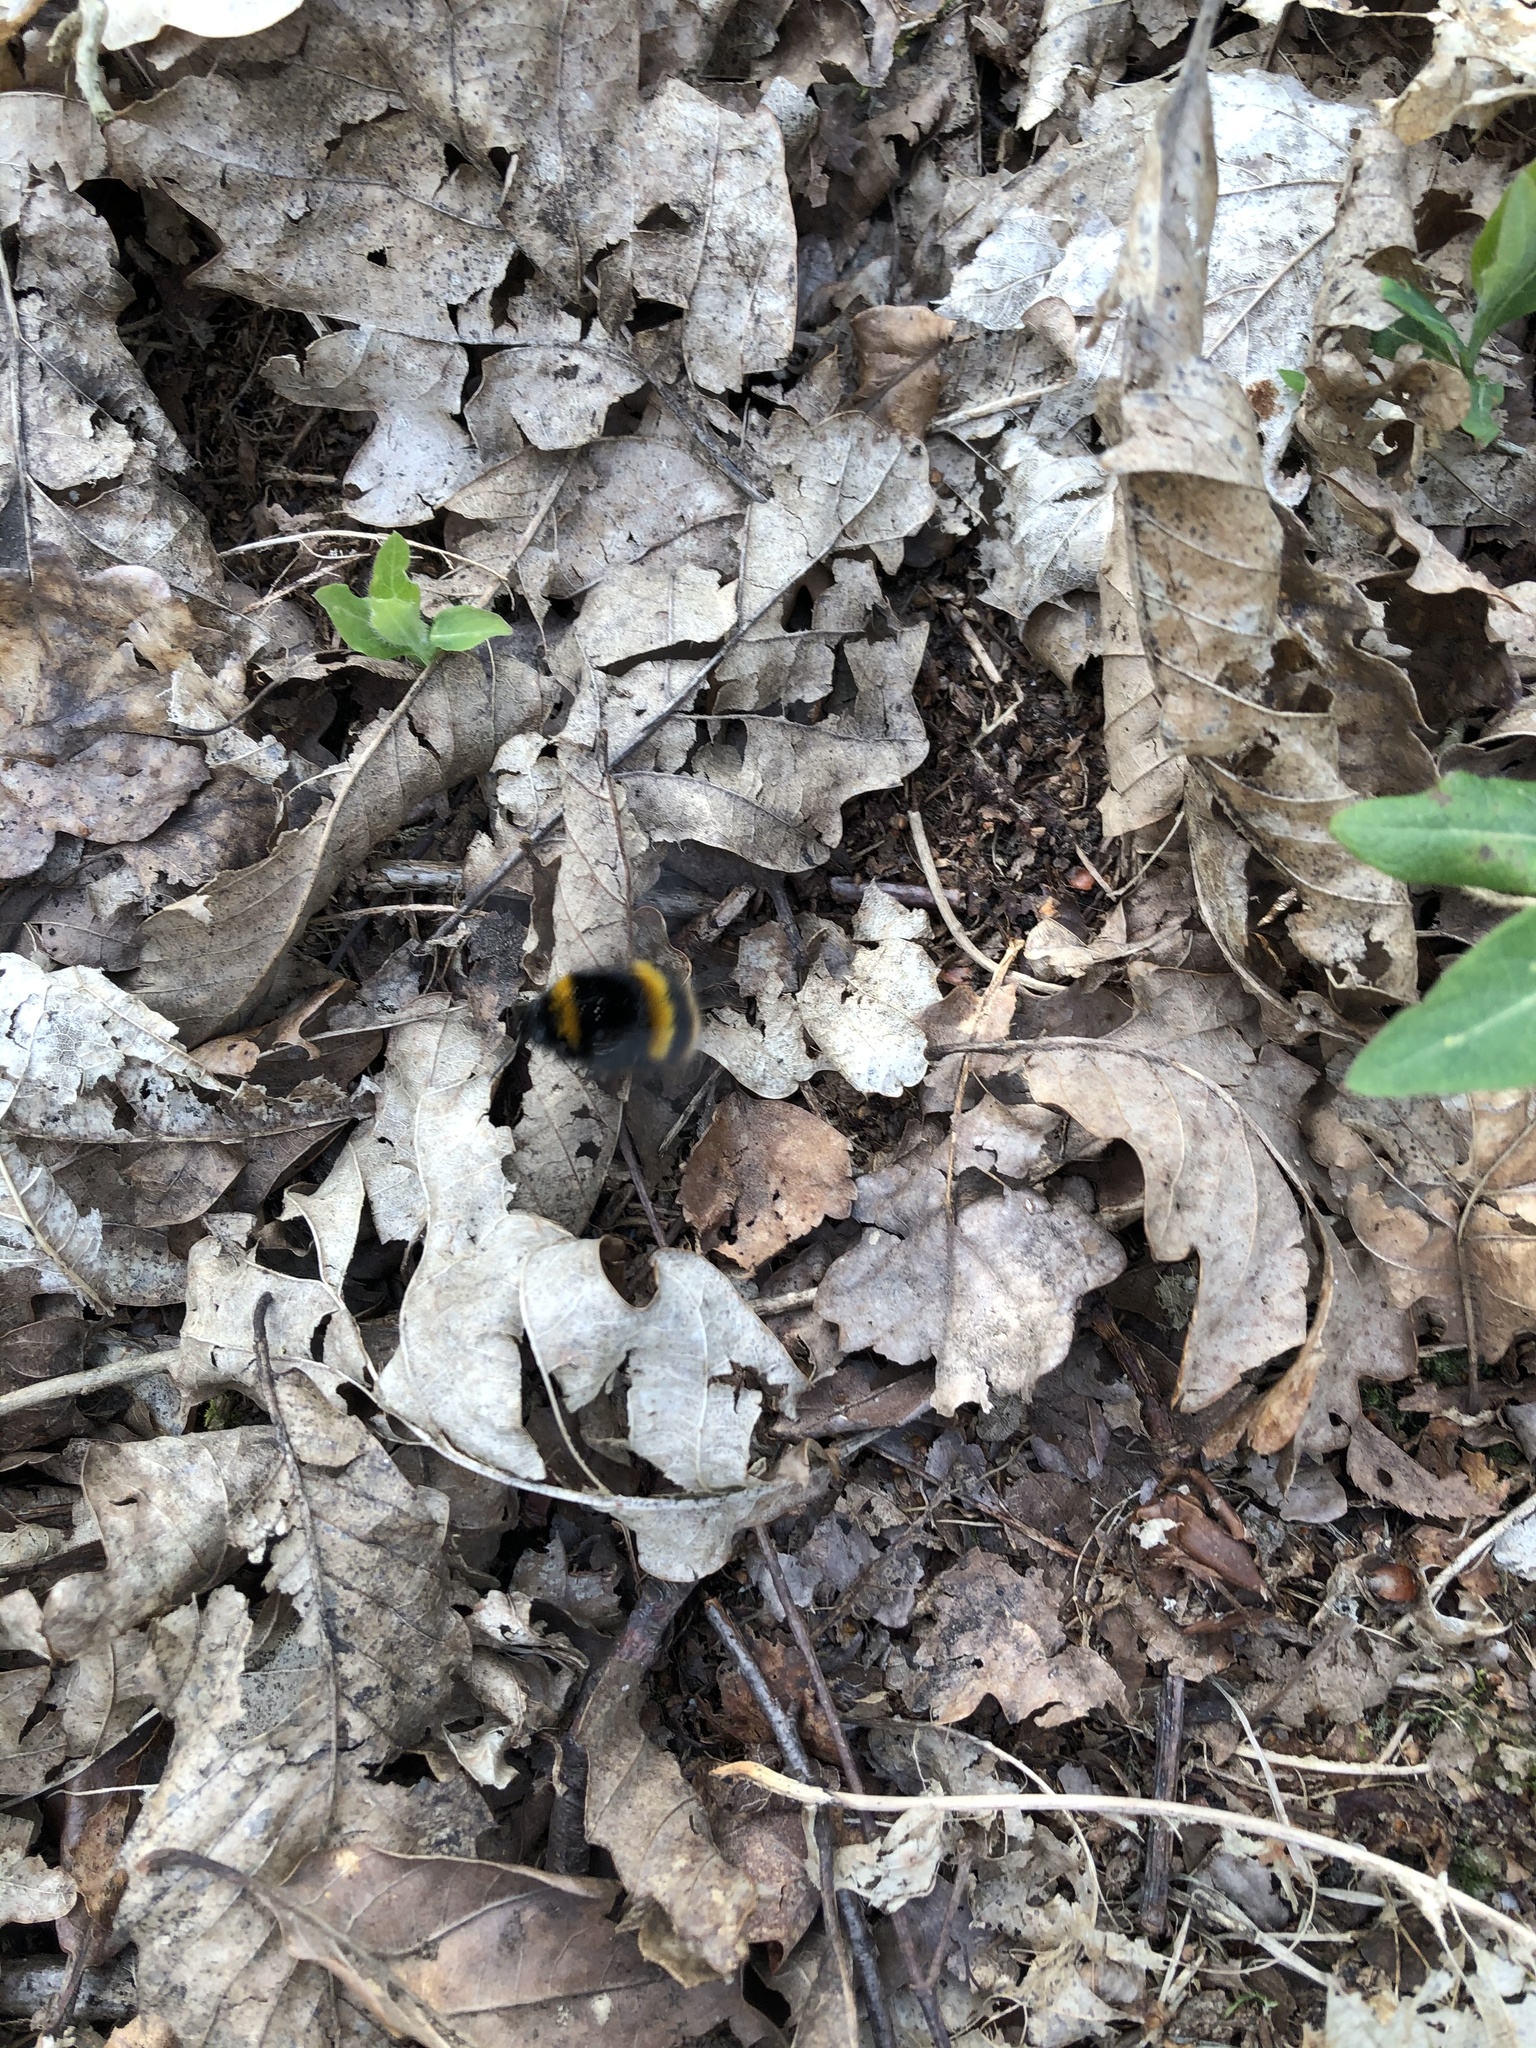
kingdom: Animalia
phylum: Arthropoda
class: Insecta
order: Hymenoptera
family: Apidae
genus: Bombus
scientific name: Bombus terrestris
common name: Buff-tailed bumblebee
